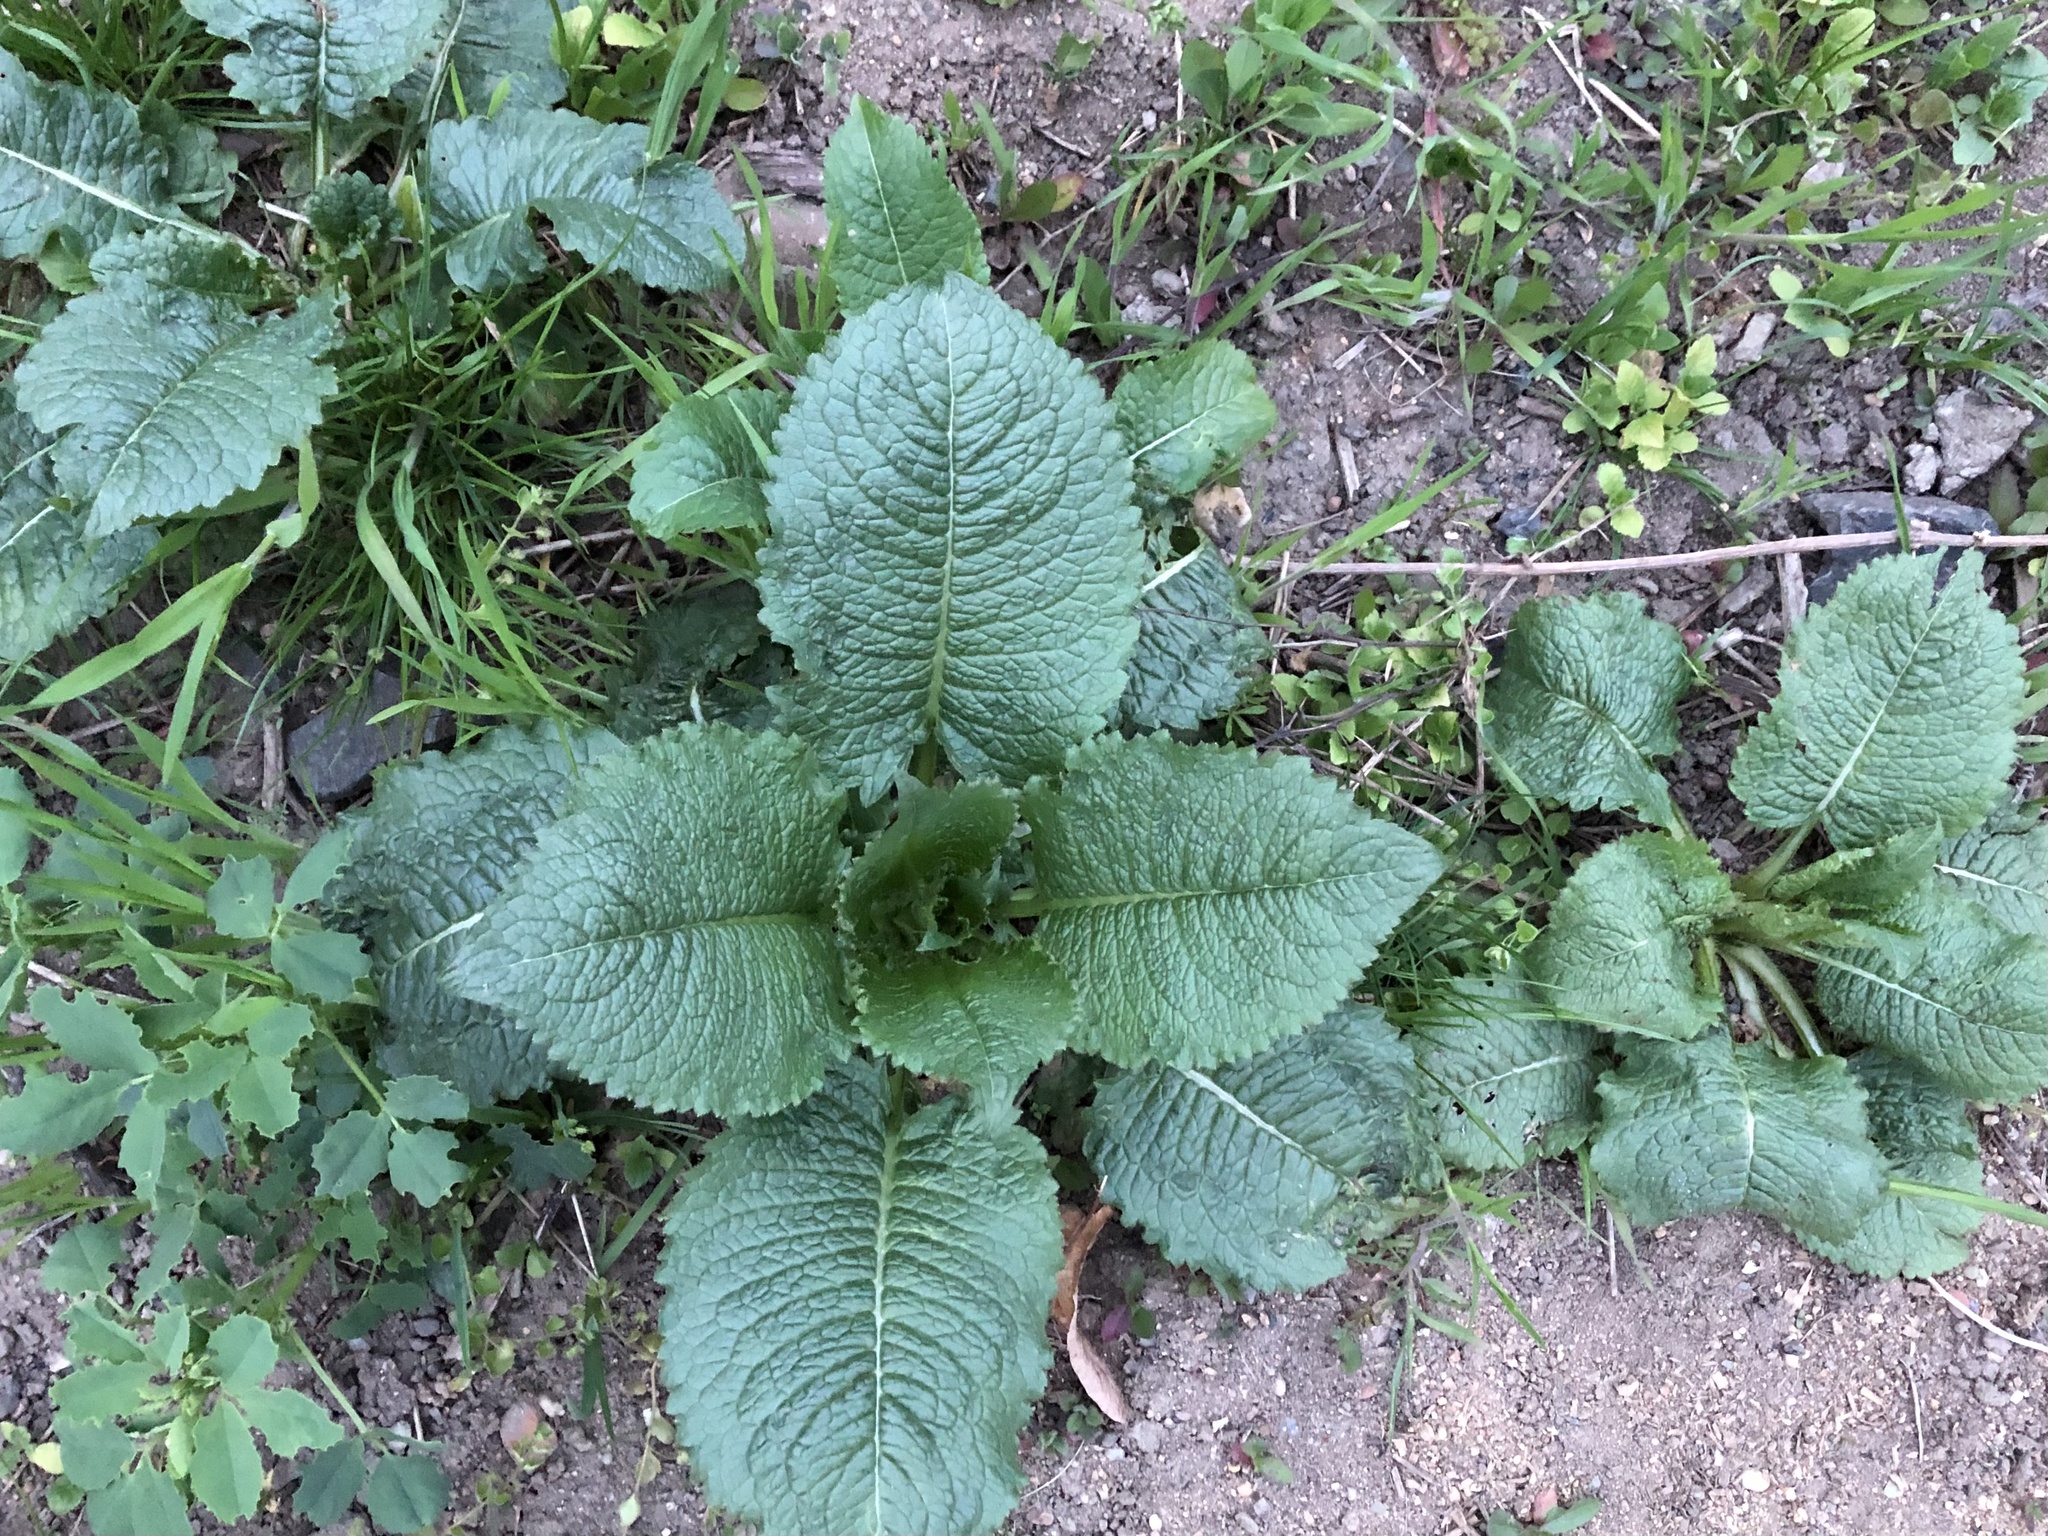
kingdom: Plantae
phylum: Tracheophyta
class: Magnoliopsida
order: Dipsacales
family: Caprifoliaceae
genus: Dipsacus
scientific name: Dipsacus strigosus
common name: Yellow-flowered teasel
